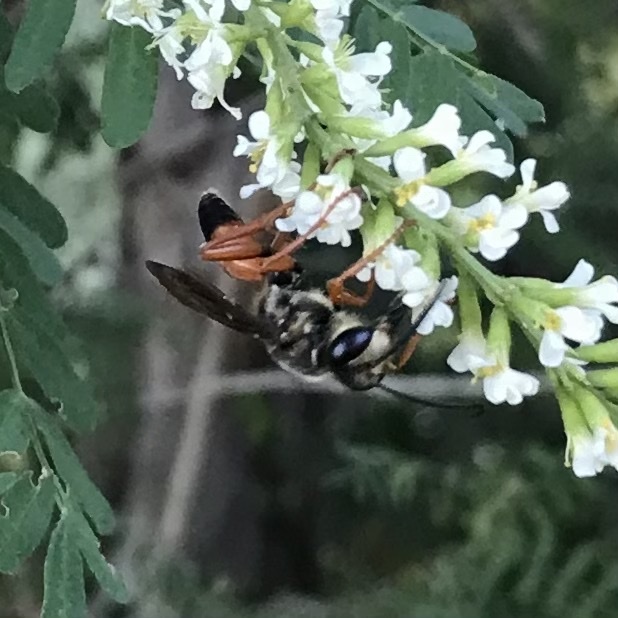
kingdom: Animalia
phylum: Arthropoda
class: Insecta
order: Hymenoptera
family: Sphecidae
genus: Sphex
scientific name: Sphex ichneumoneus
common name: Great golden digger wasp
